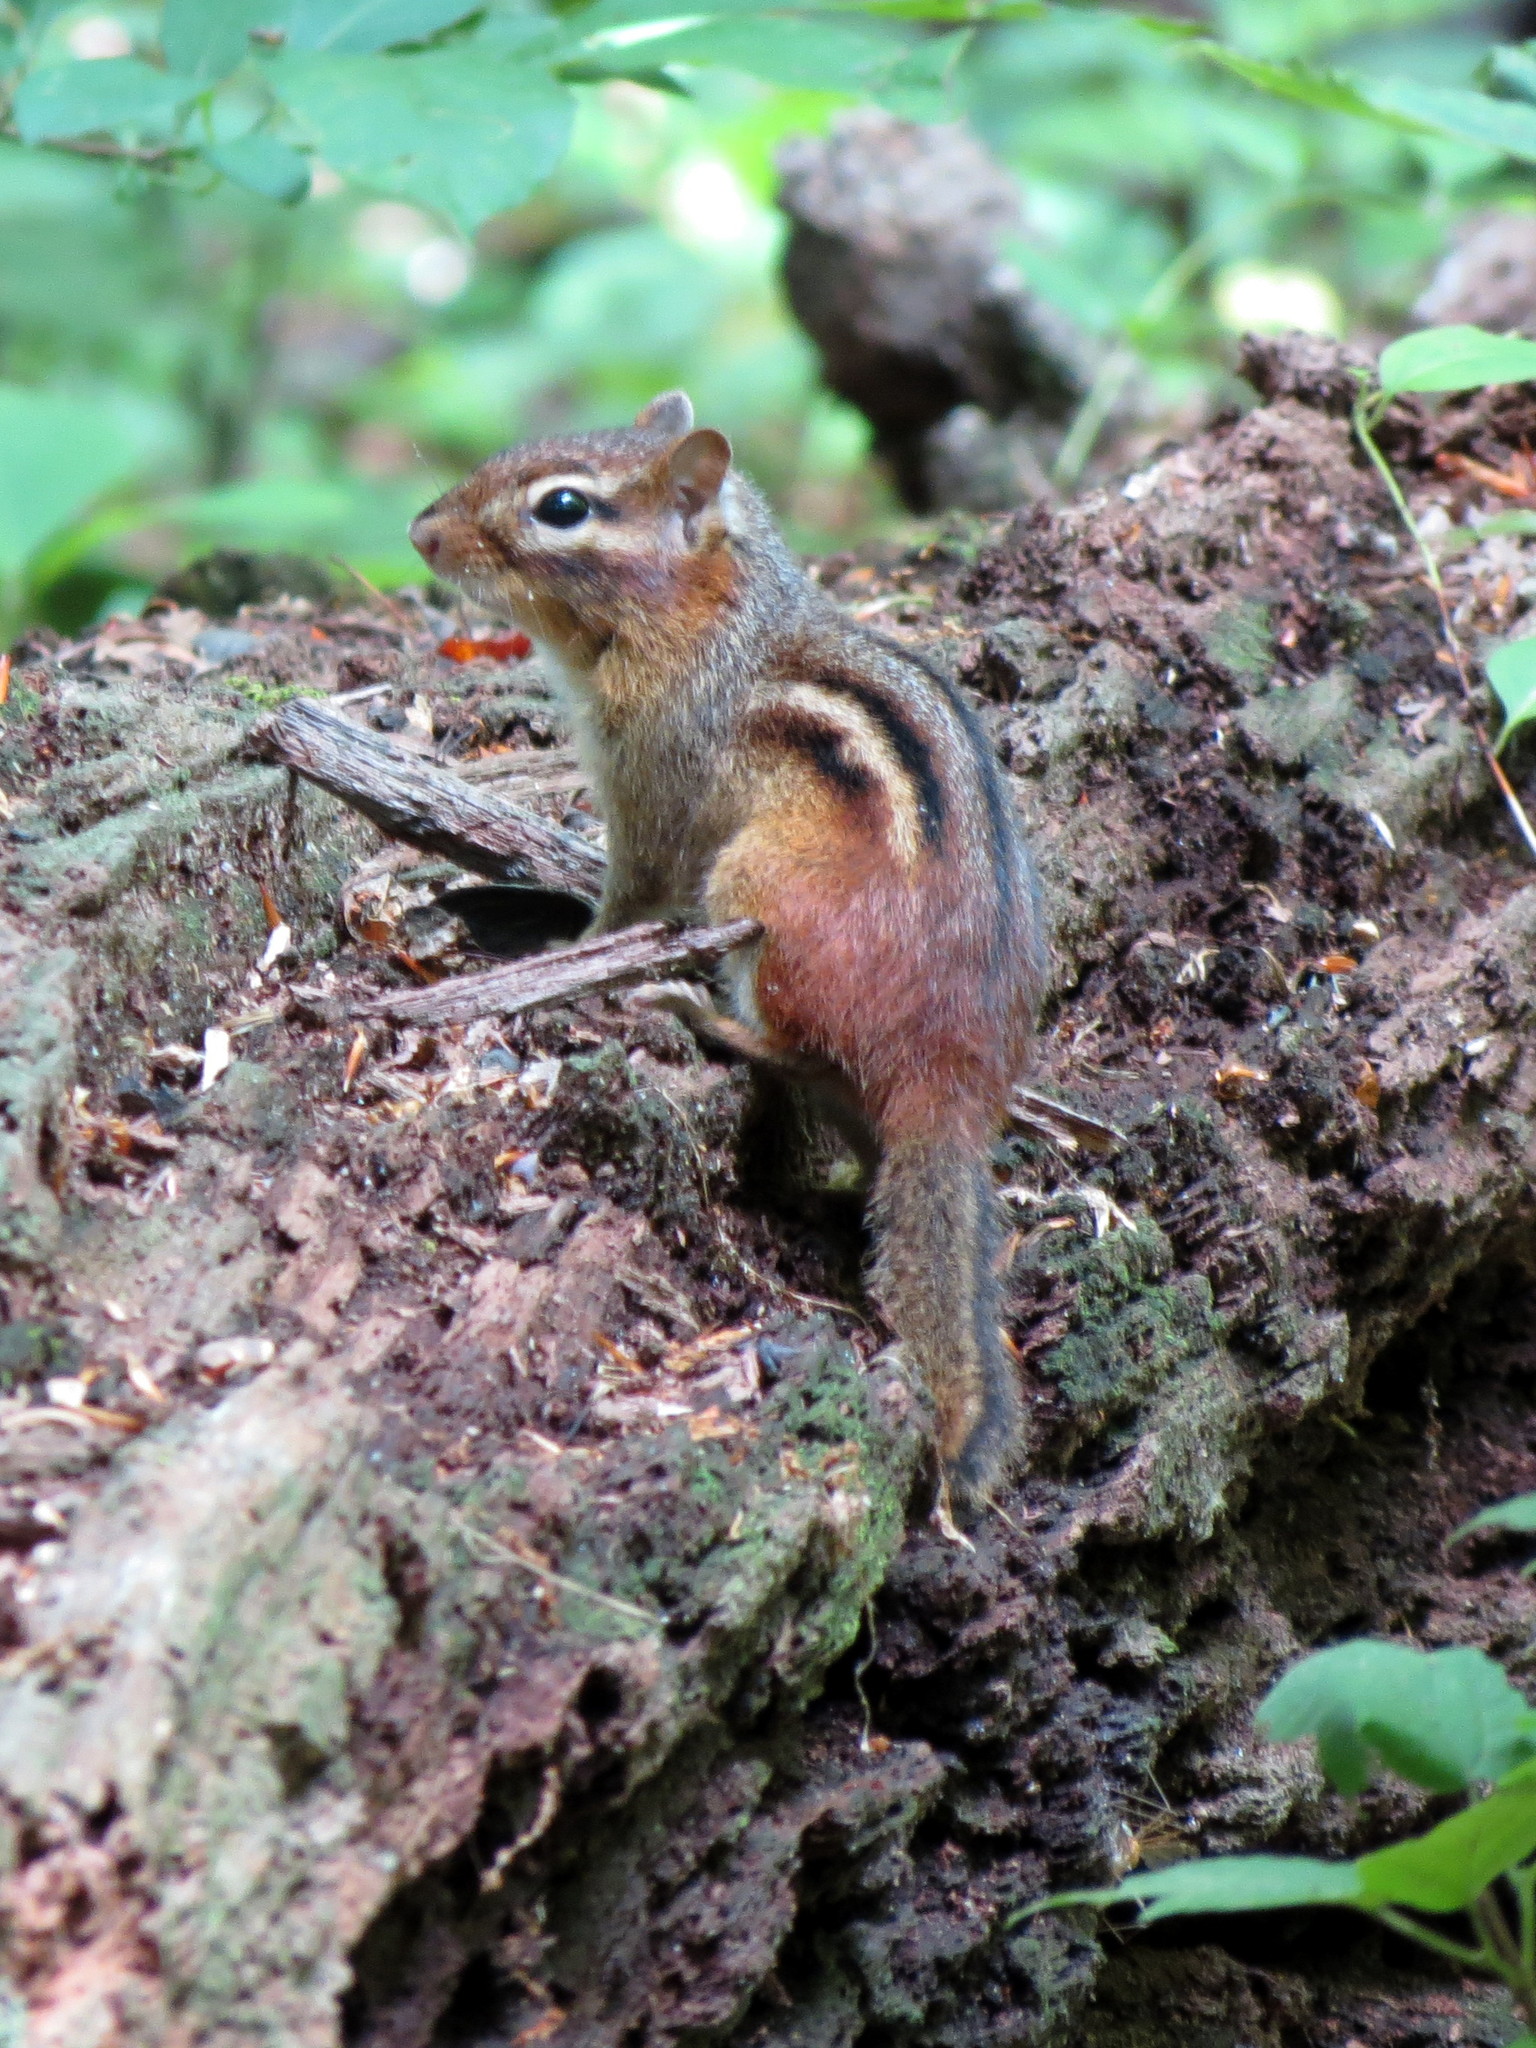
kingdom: Animalia
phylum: Chordata
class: Mammalia
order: Rodentia
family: Sciuridae
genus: Tamias
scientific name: Tamias striatus
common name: Eastern chipmunk
